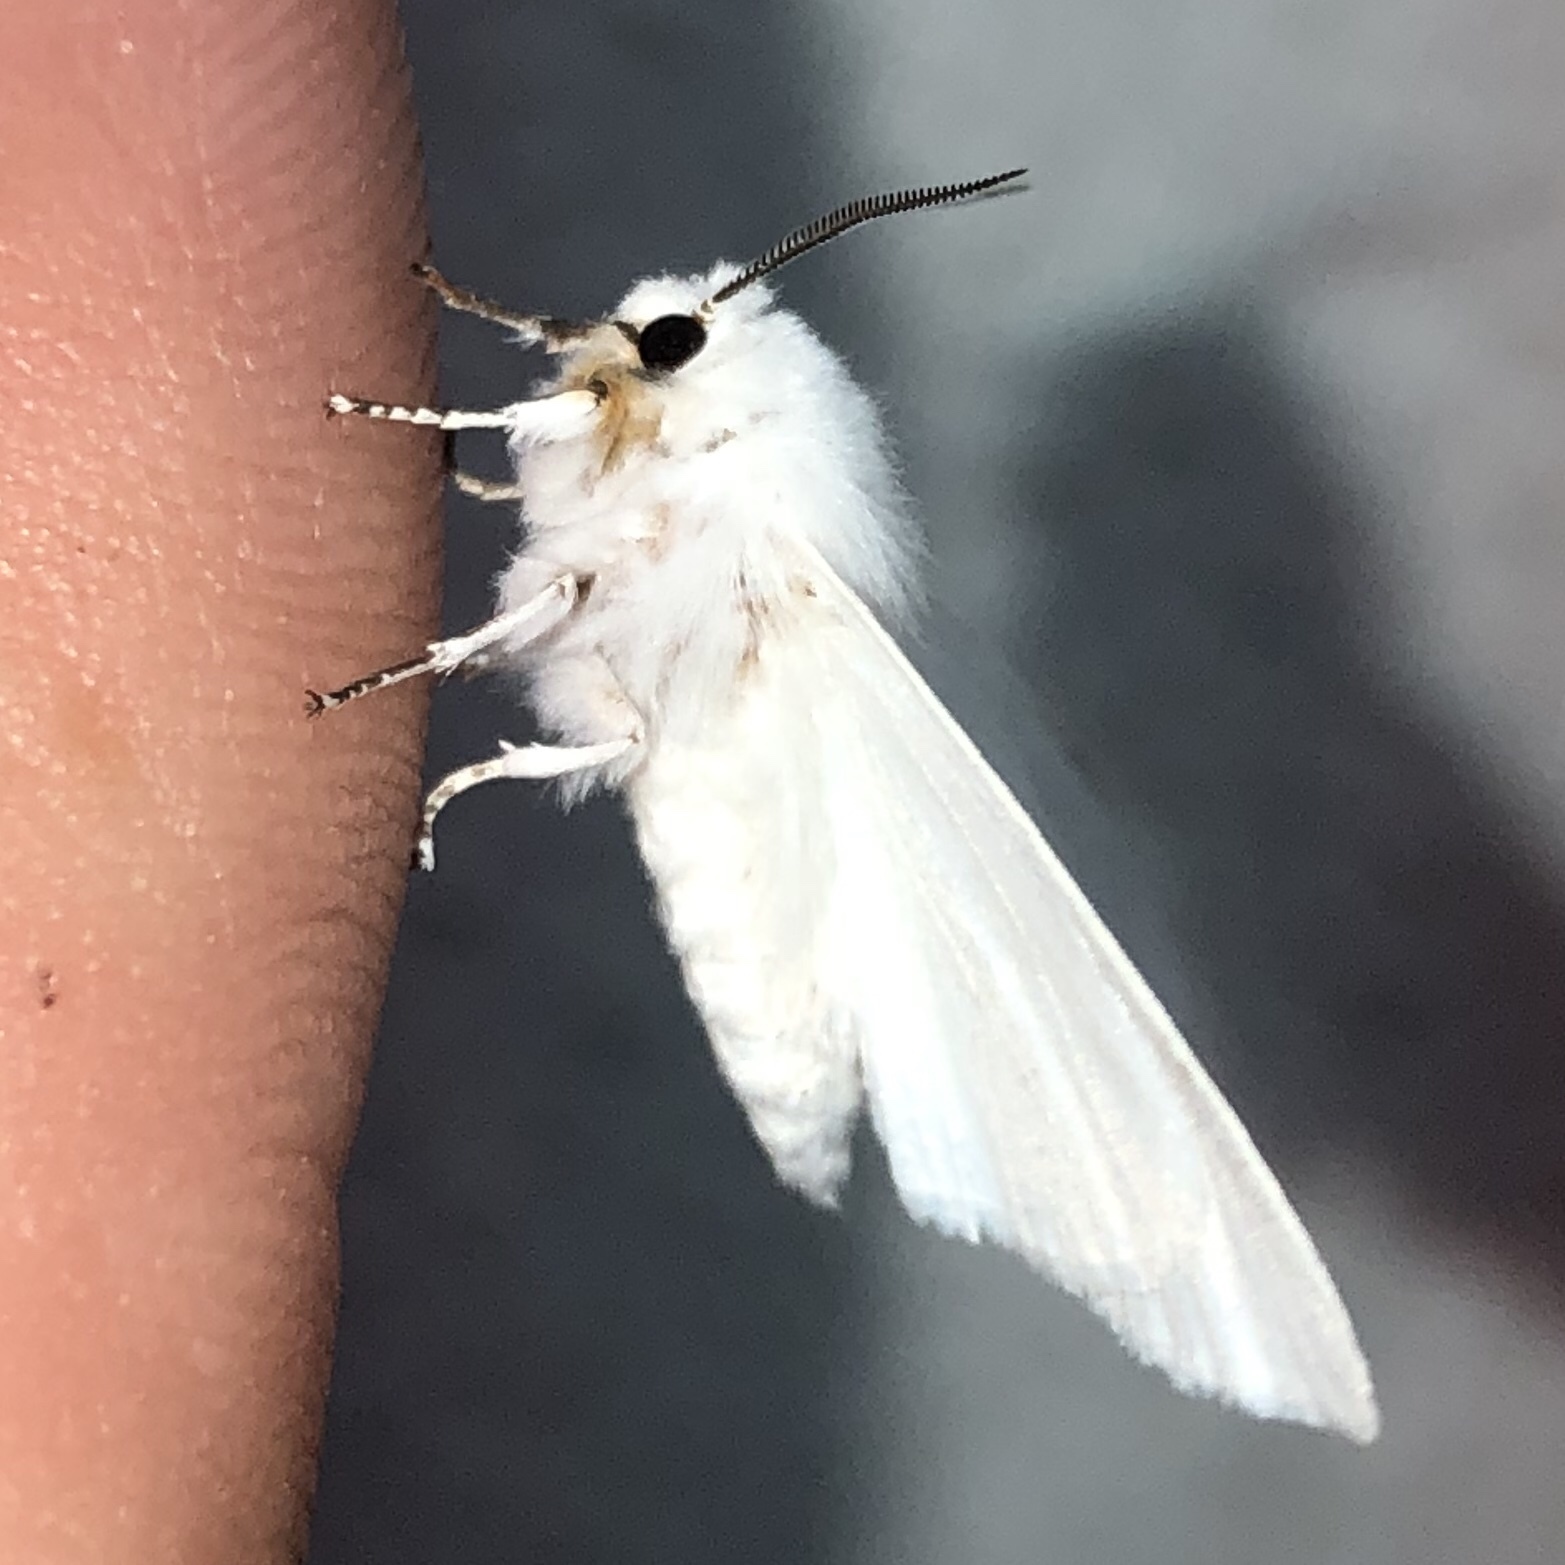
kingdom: Animalia
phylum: Arthropoda
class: Insecta
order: Lepidoptera
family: Erebidae
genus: Hyphantria
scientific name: Hyphantria cunea
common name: American white moth
